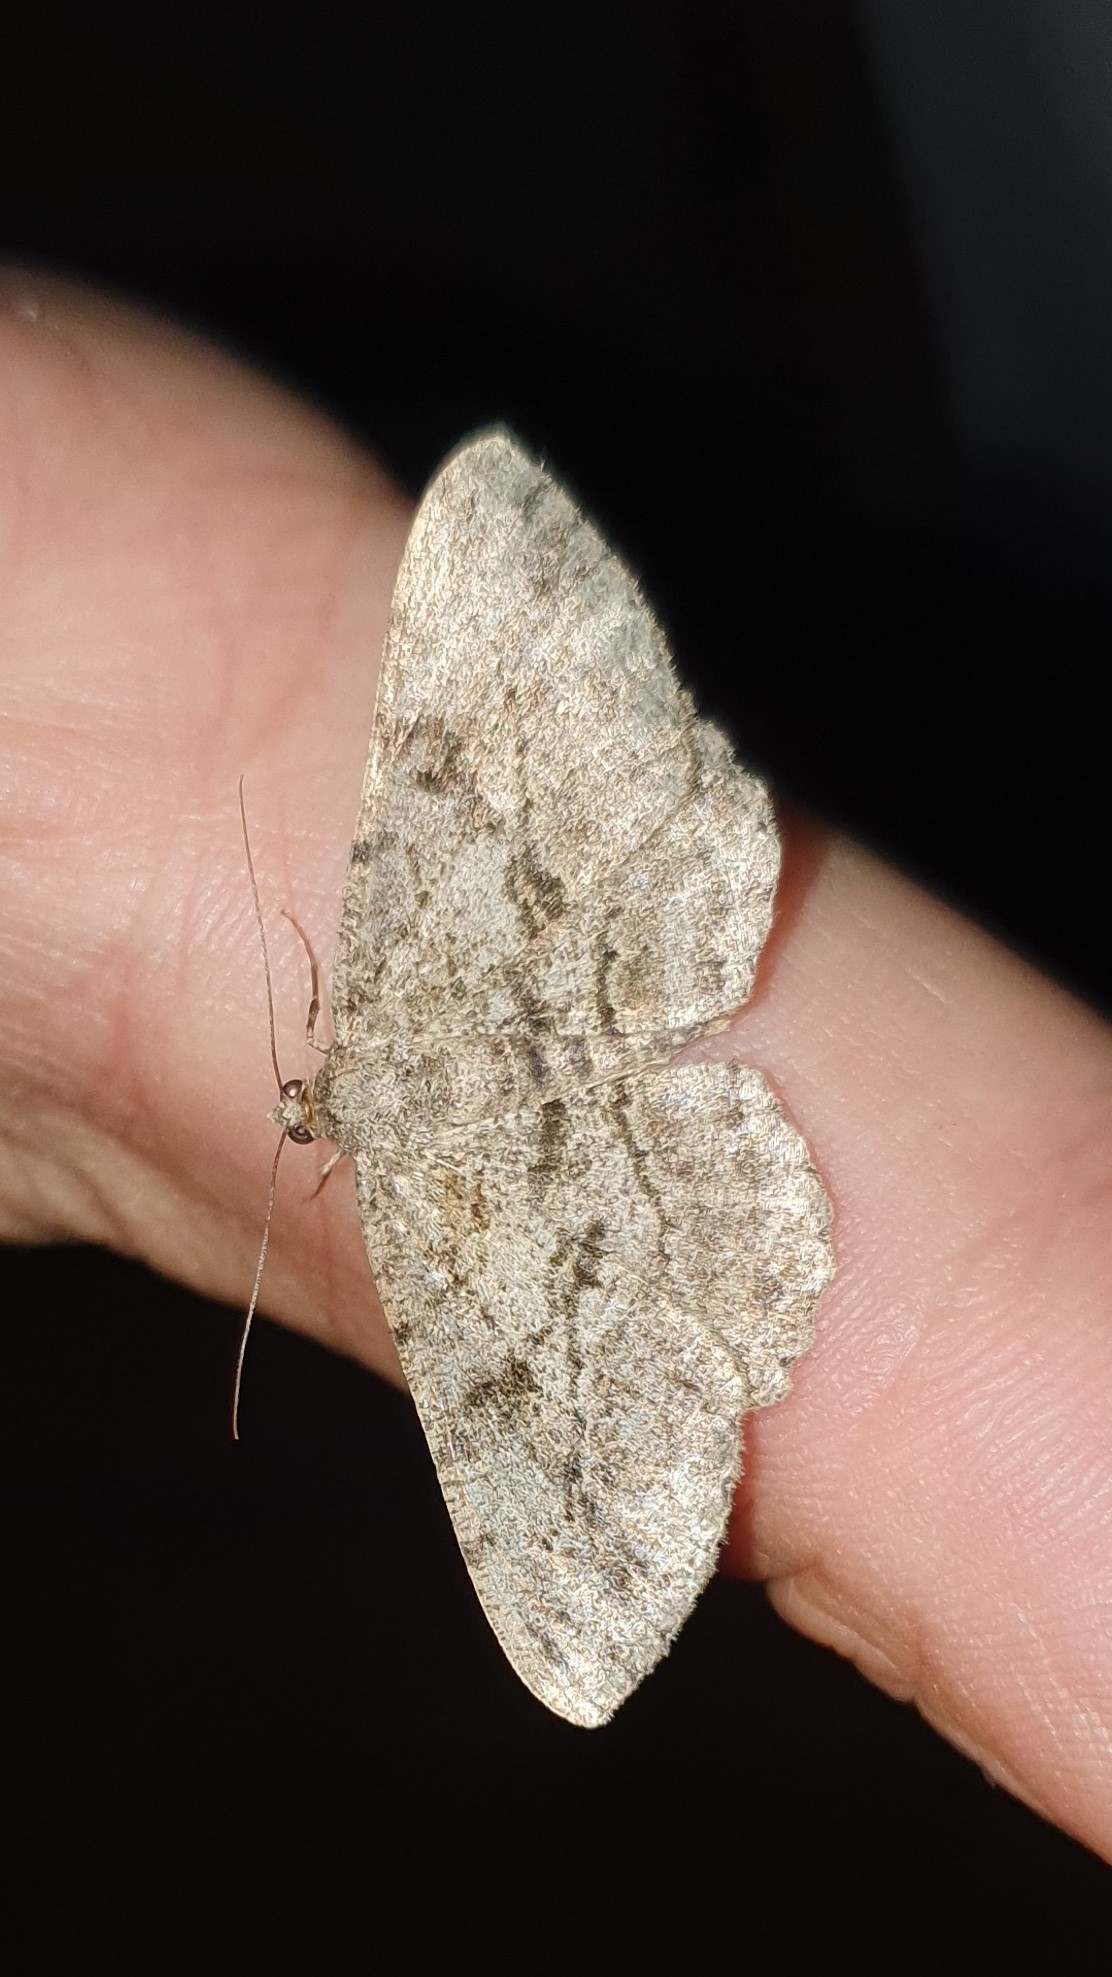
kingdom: Animalia
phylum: Arthropoda
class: Insecta
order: Lepidoptera
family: Geometridae
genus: Peribatodes
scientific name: Peribatodes rhomboidaria
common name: Willow beauty
